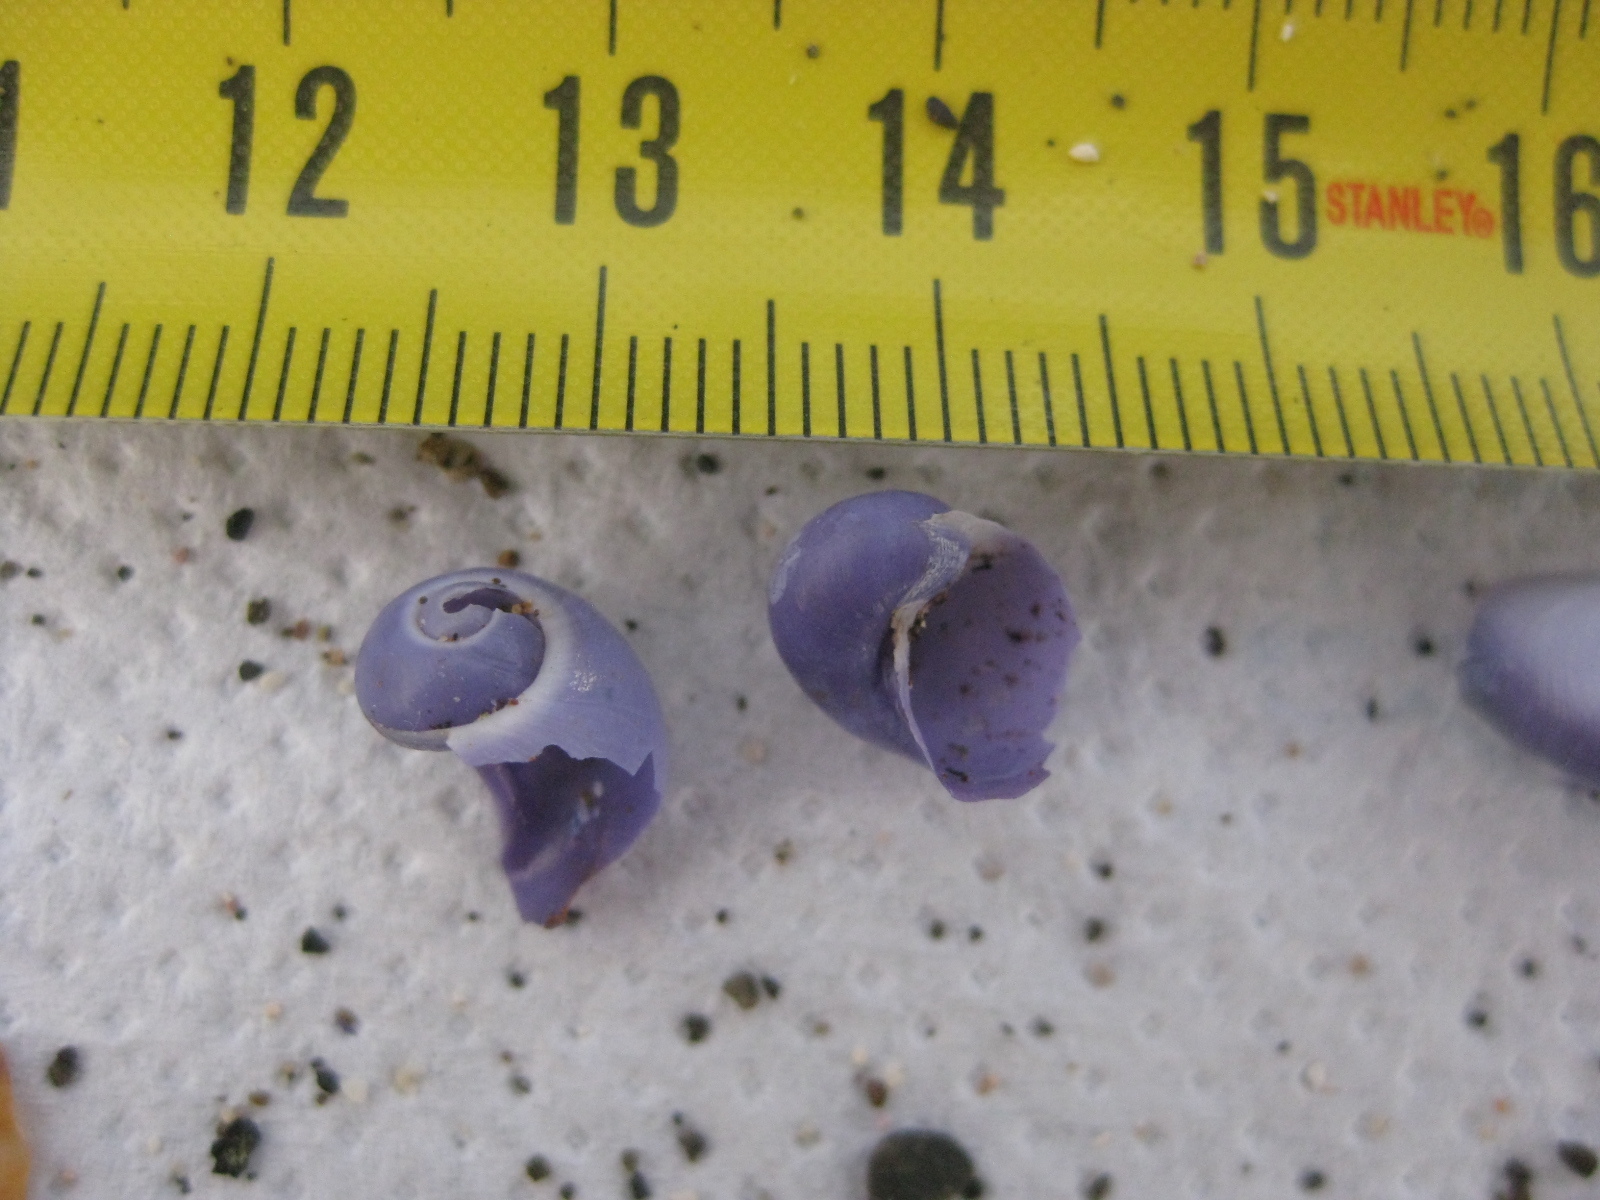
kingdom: Animalia
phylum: Mollusca
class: Gastropoda
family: Epitoniidae
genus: Janthina
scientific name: Janthina globosa
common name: Elongate janthina
